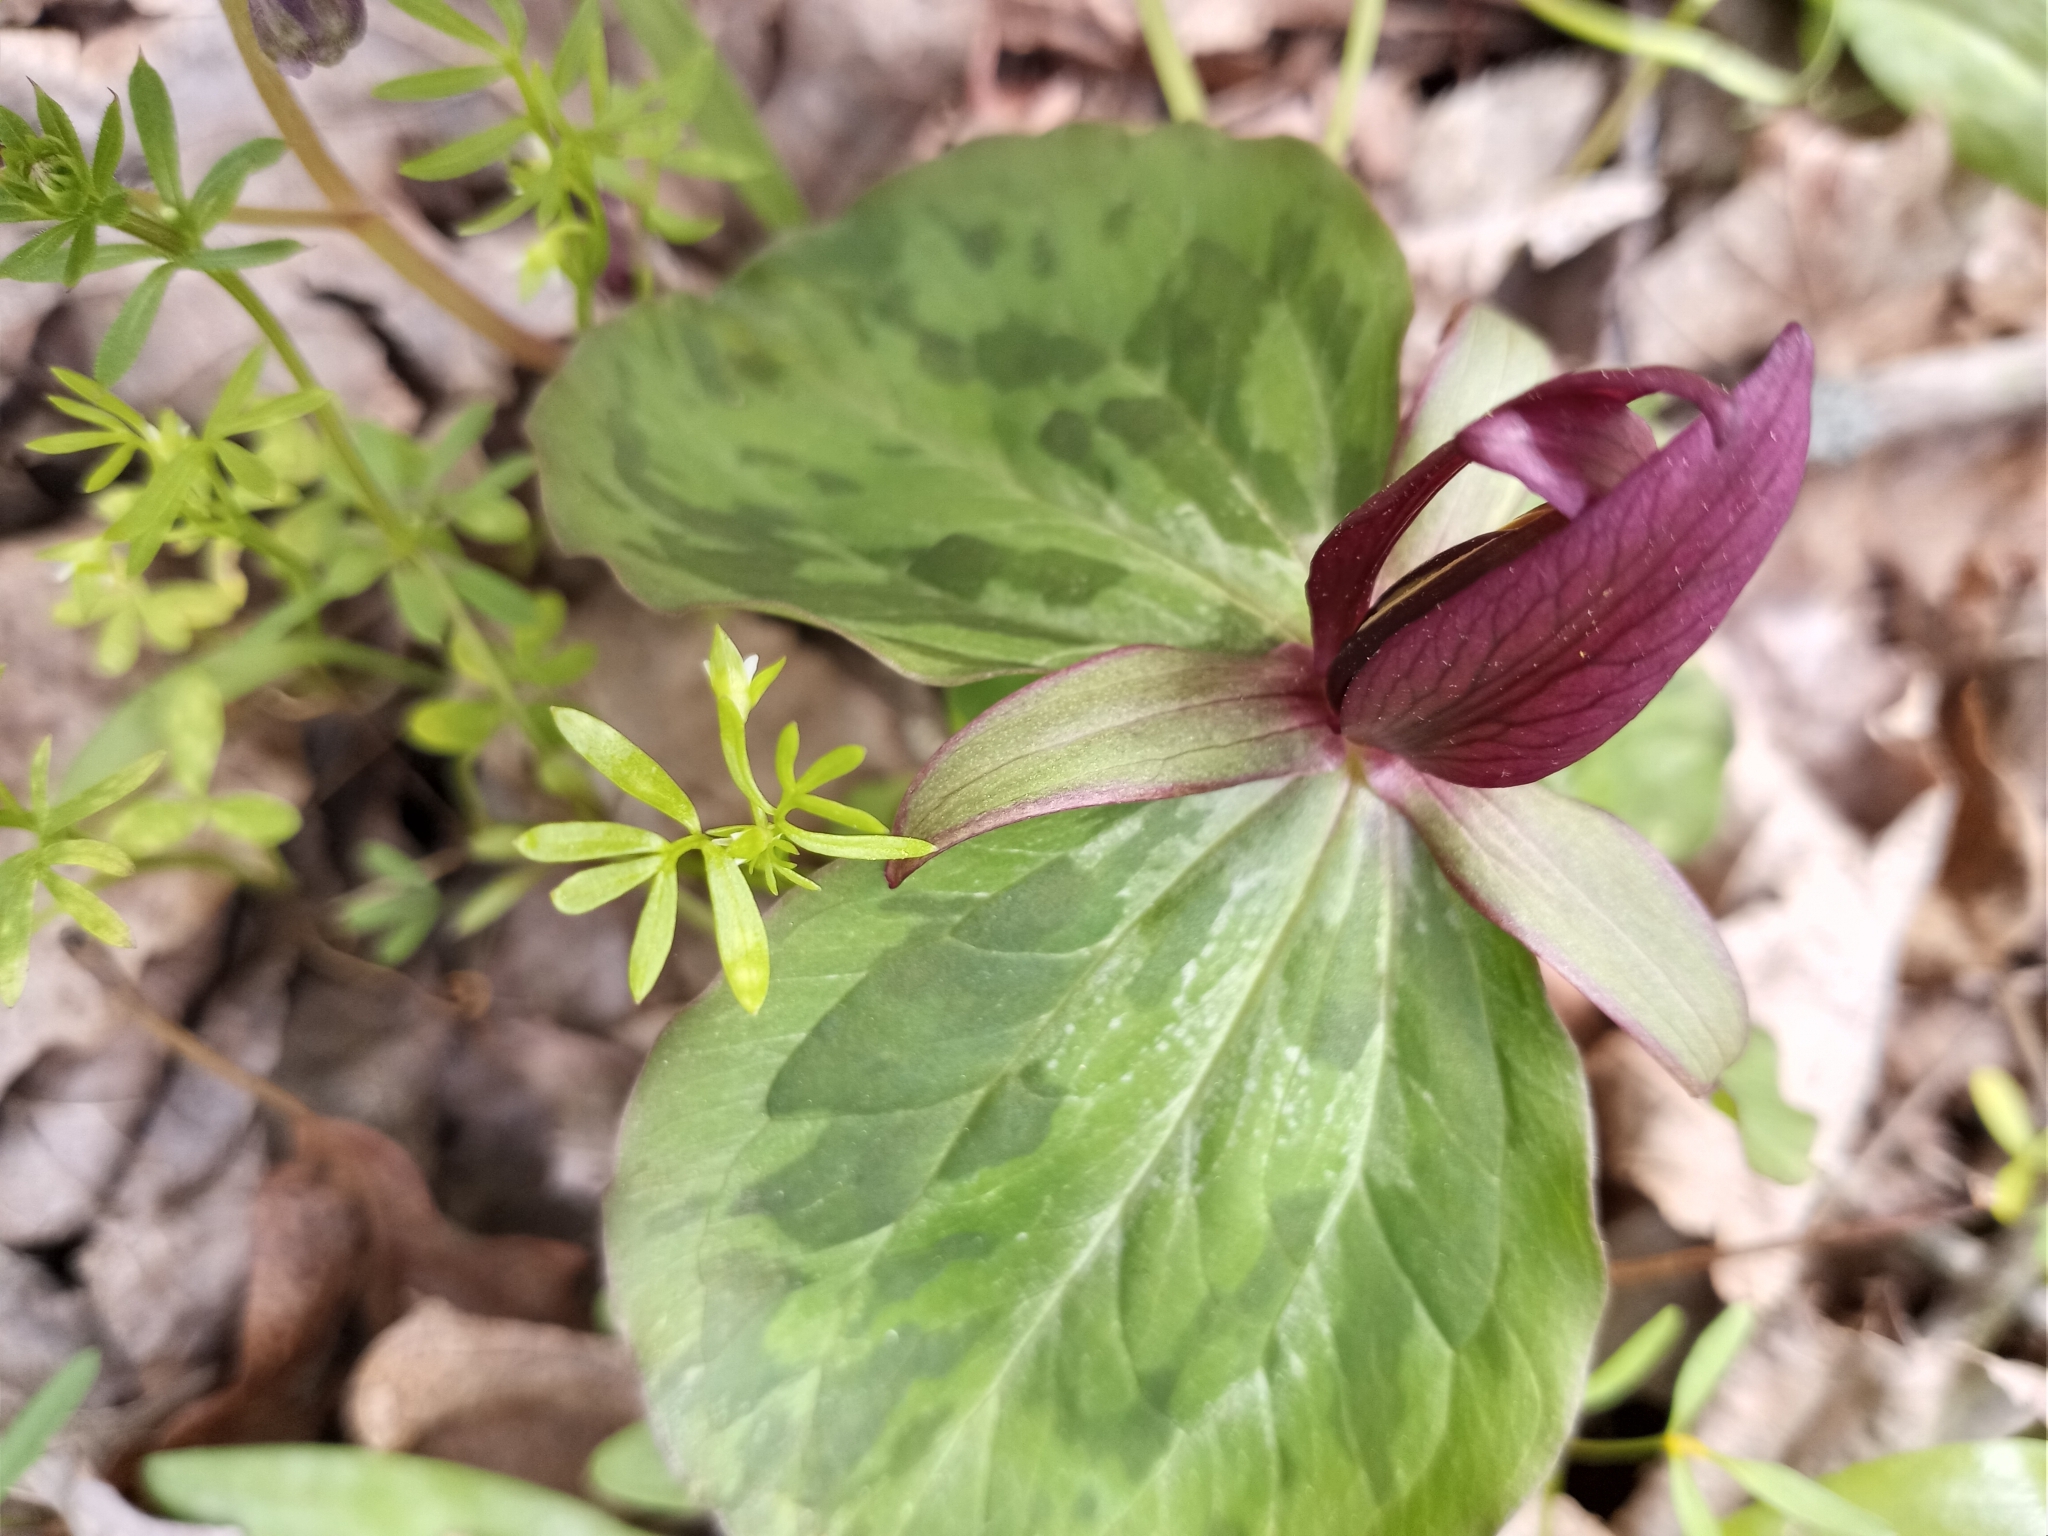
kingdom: Plantae
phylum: Tracheophyta
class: Liliopsida
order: Liliales
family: Melanthiaceae
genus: Trillium
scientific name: Trillium sessile
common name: Sessile trillium
